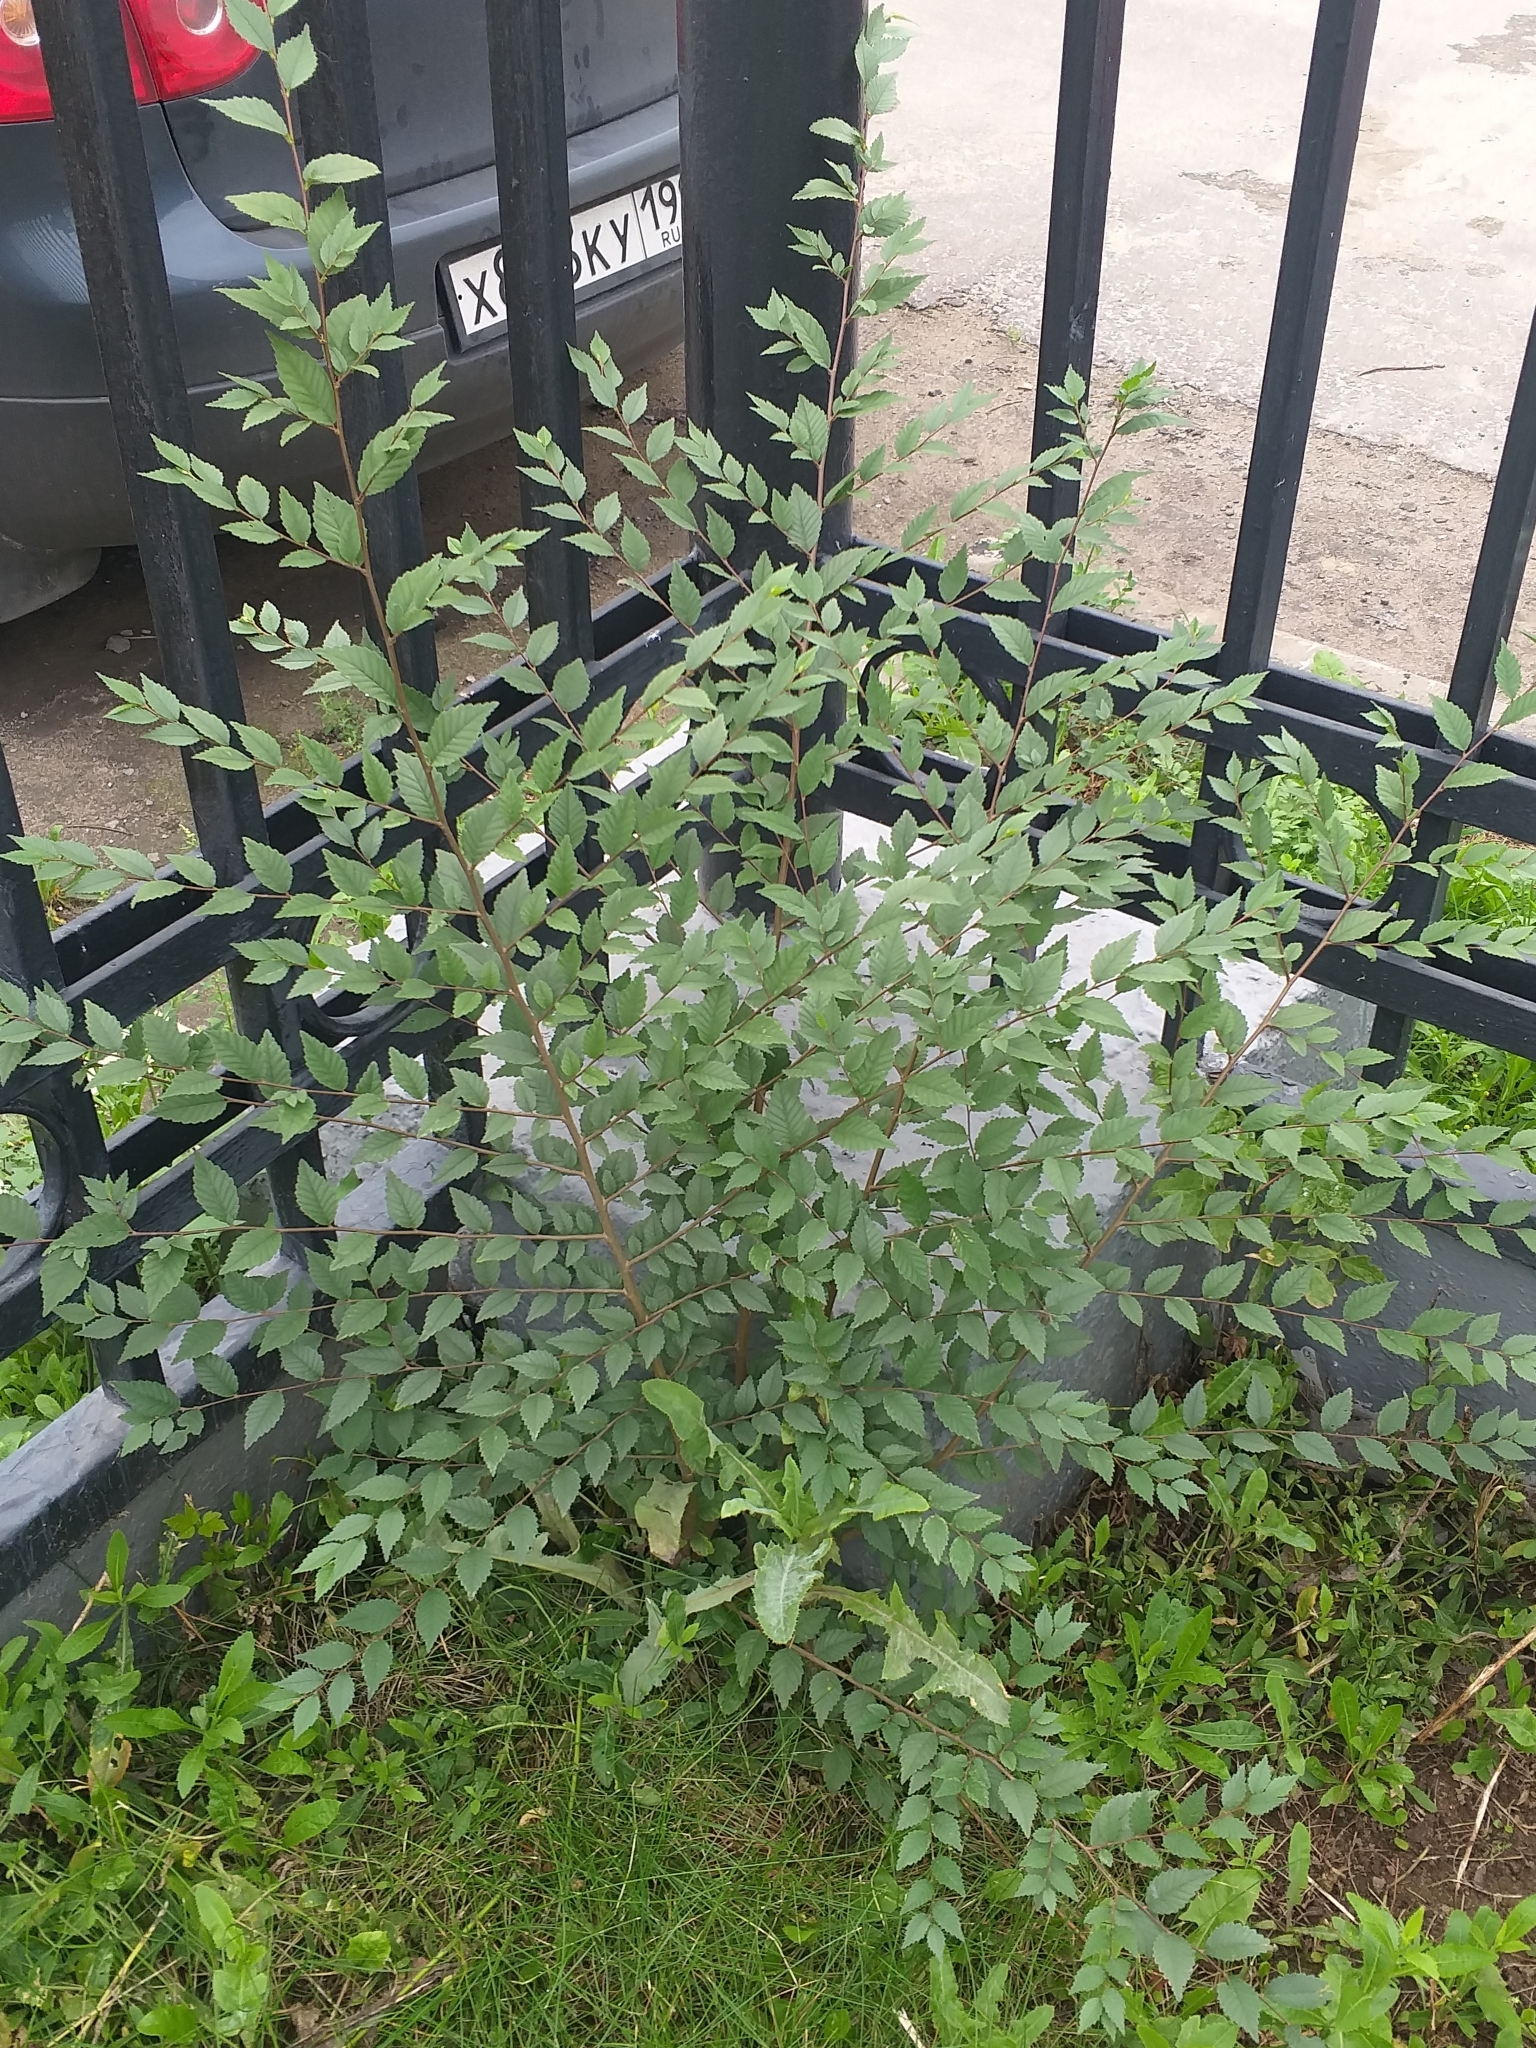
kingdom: Plantae
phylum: Tracheophyta
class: Magnoliopsida
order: Rosales
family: Ulmaceae
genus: Ulmus
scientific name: Ulmus pumila
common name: Siberian elm
